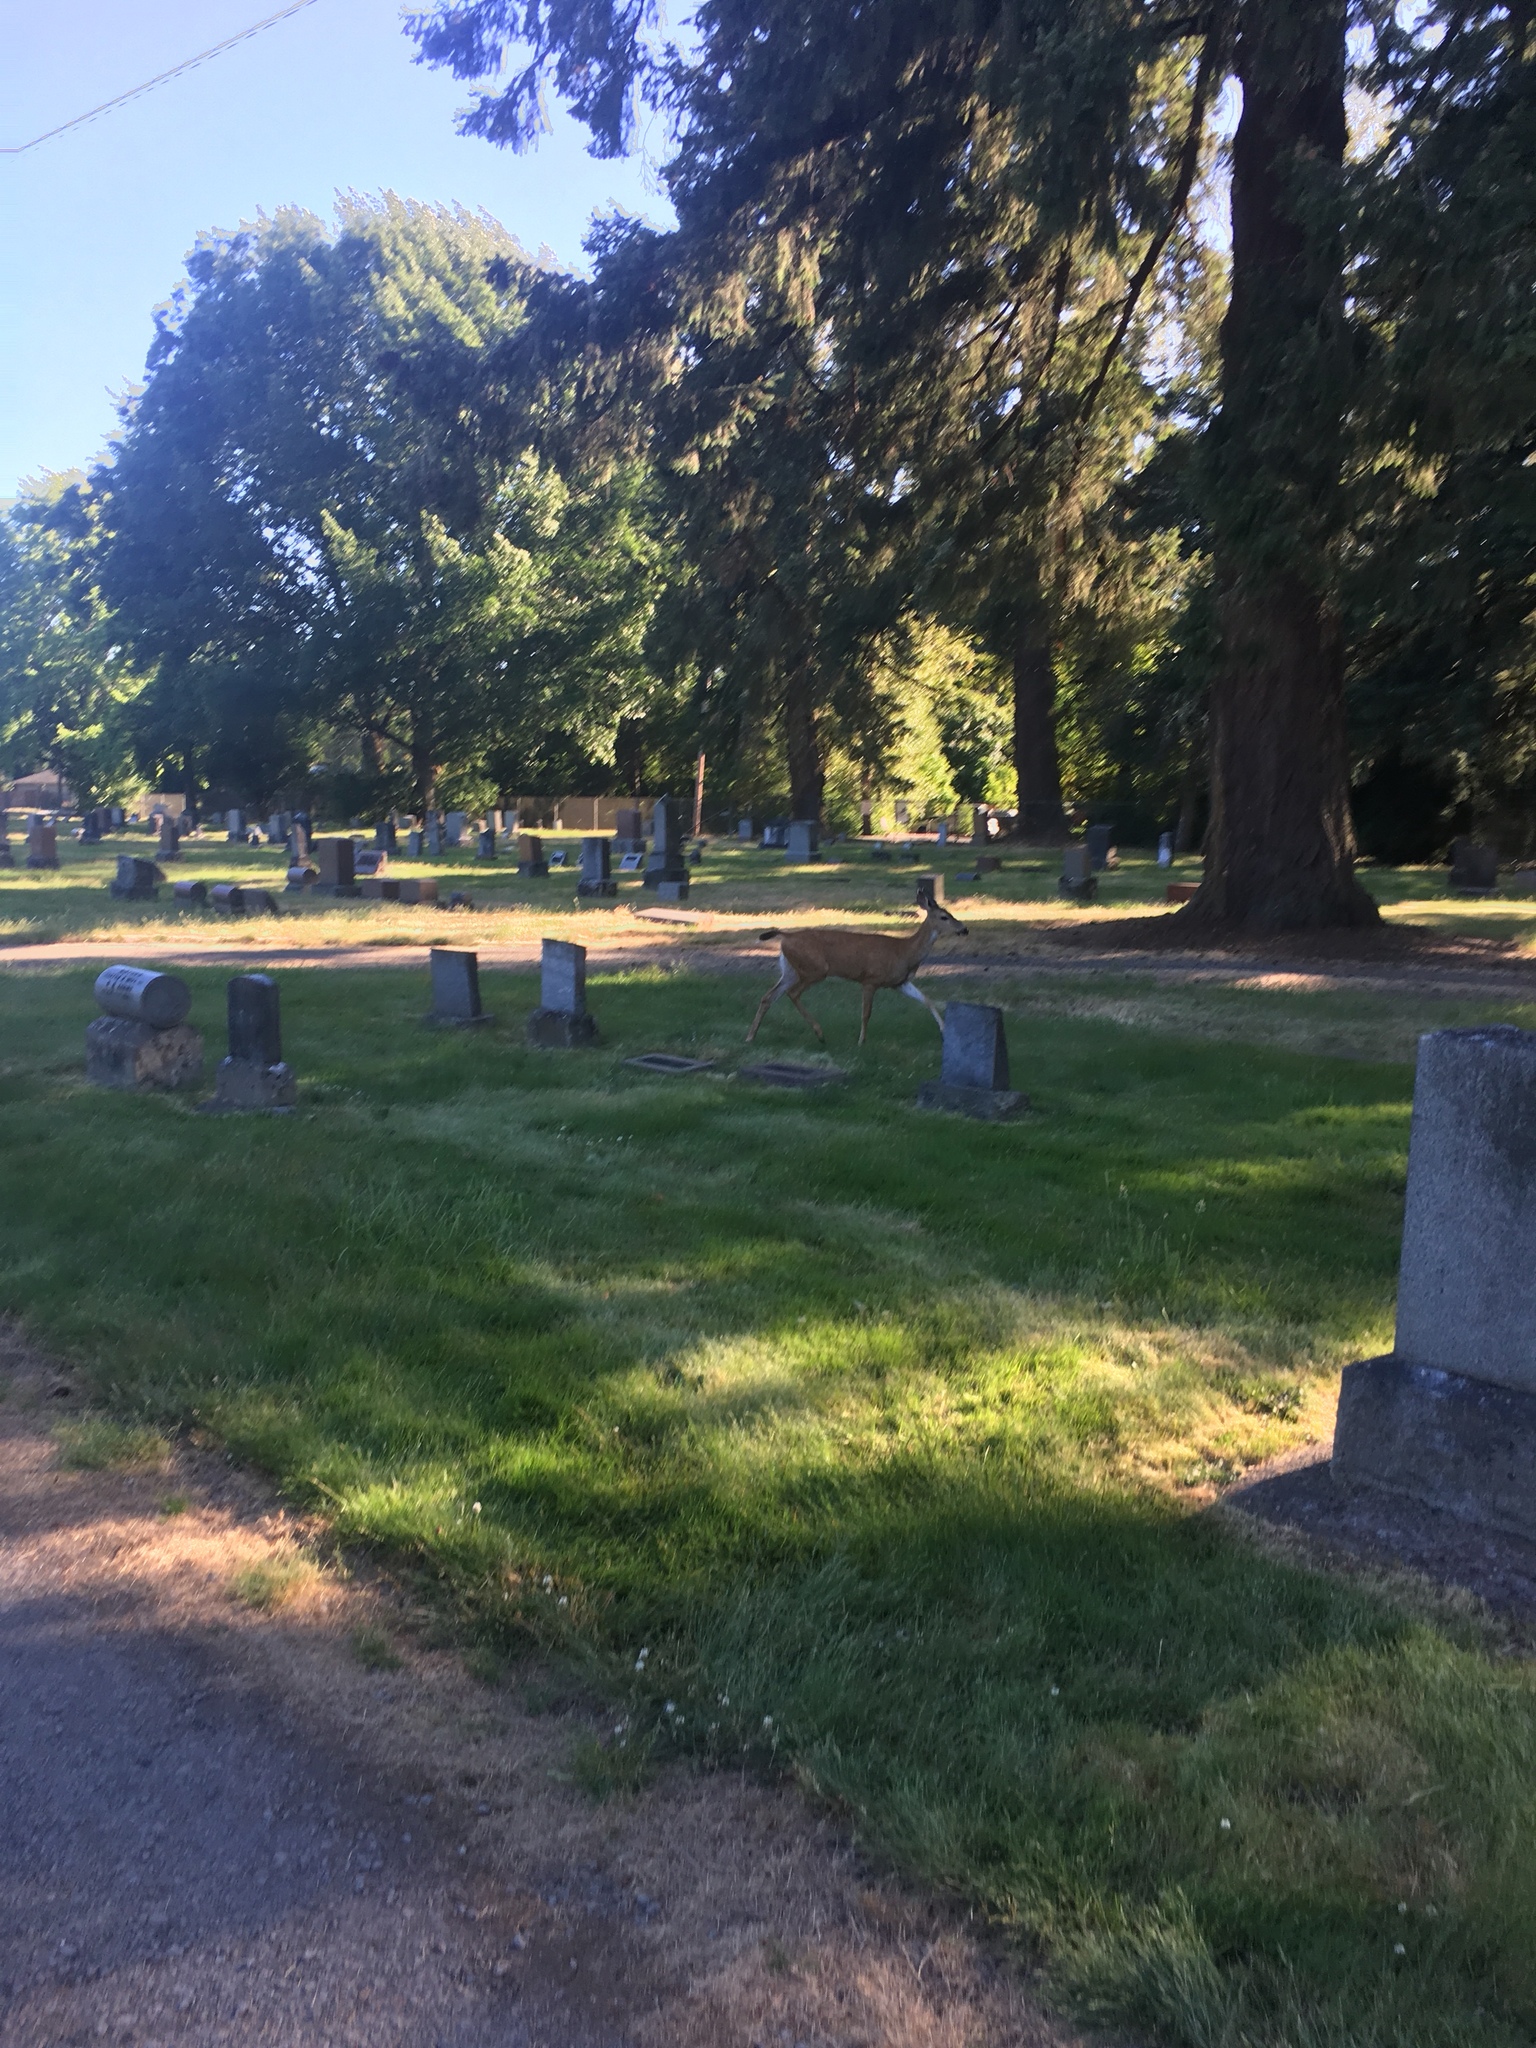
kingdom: Animalia
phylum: Chordata
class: Mammalia
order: Artiodactyla
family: Cervidae
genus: Odocoileus
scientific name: Odocoileus hemionus
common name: Mule deer
